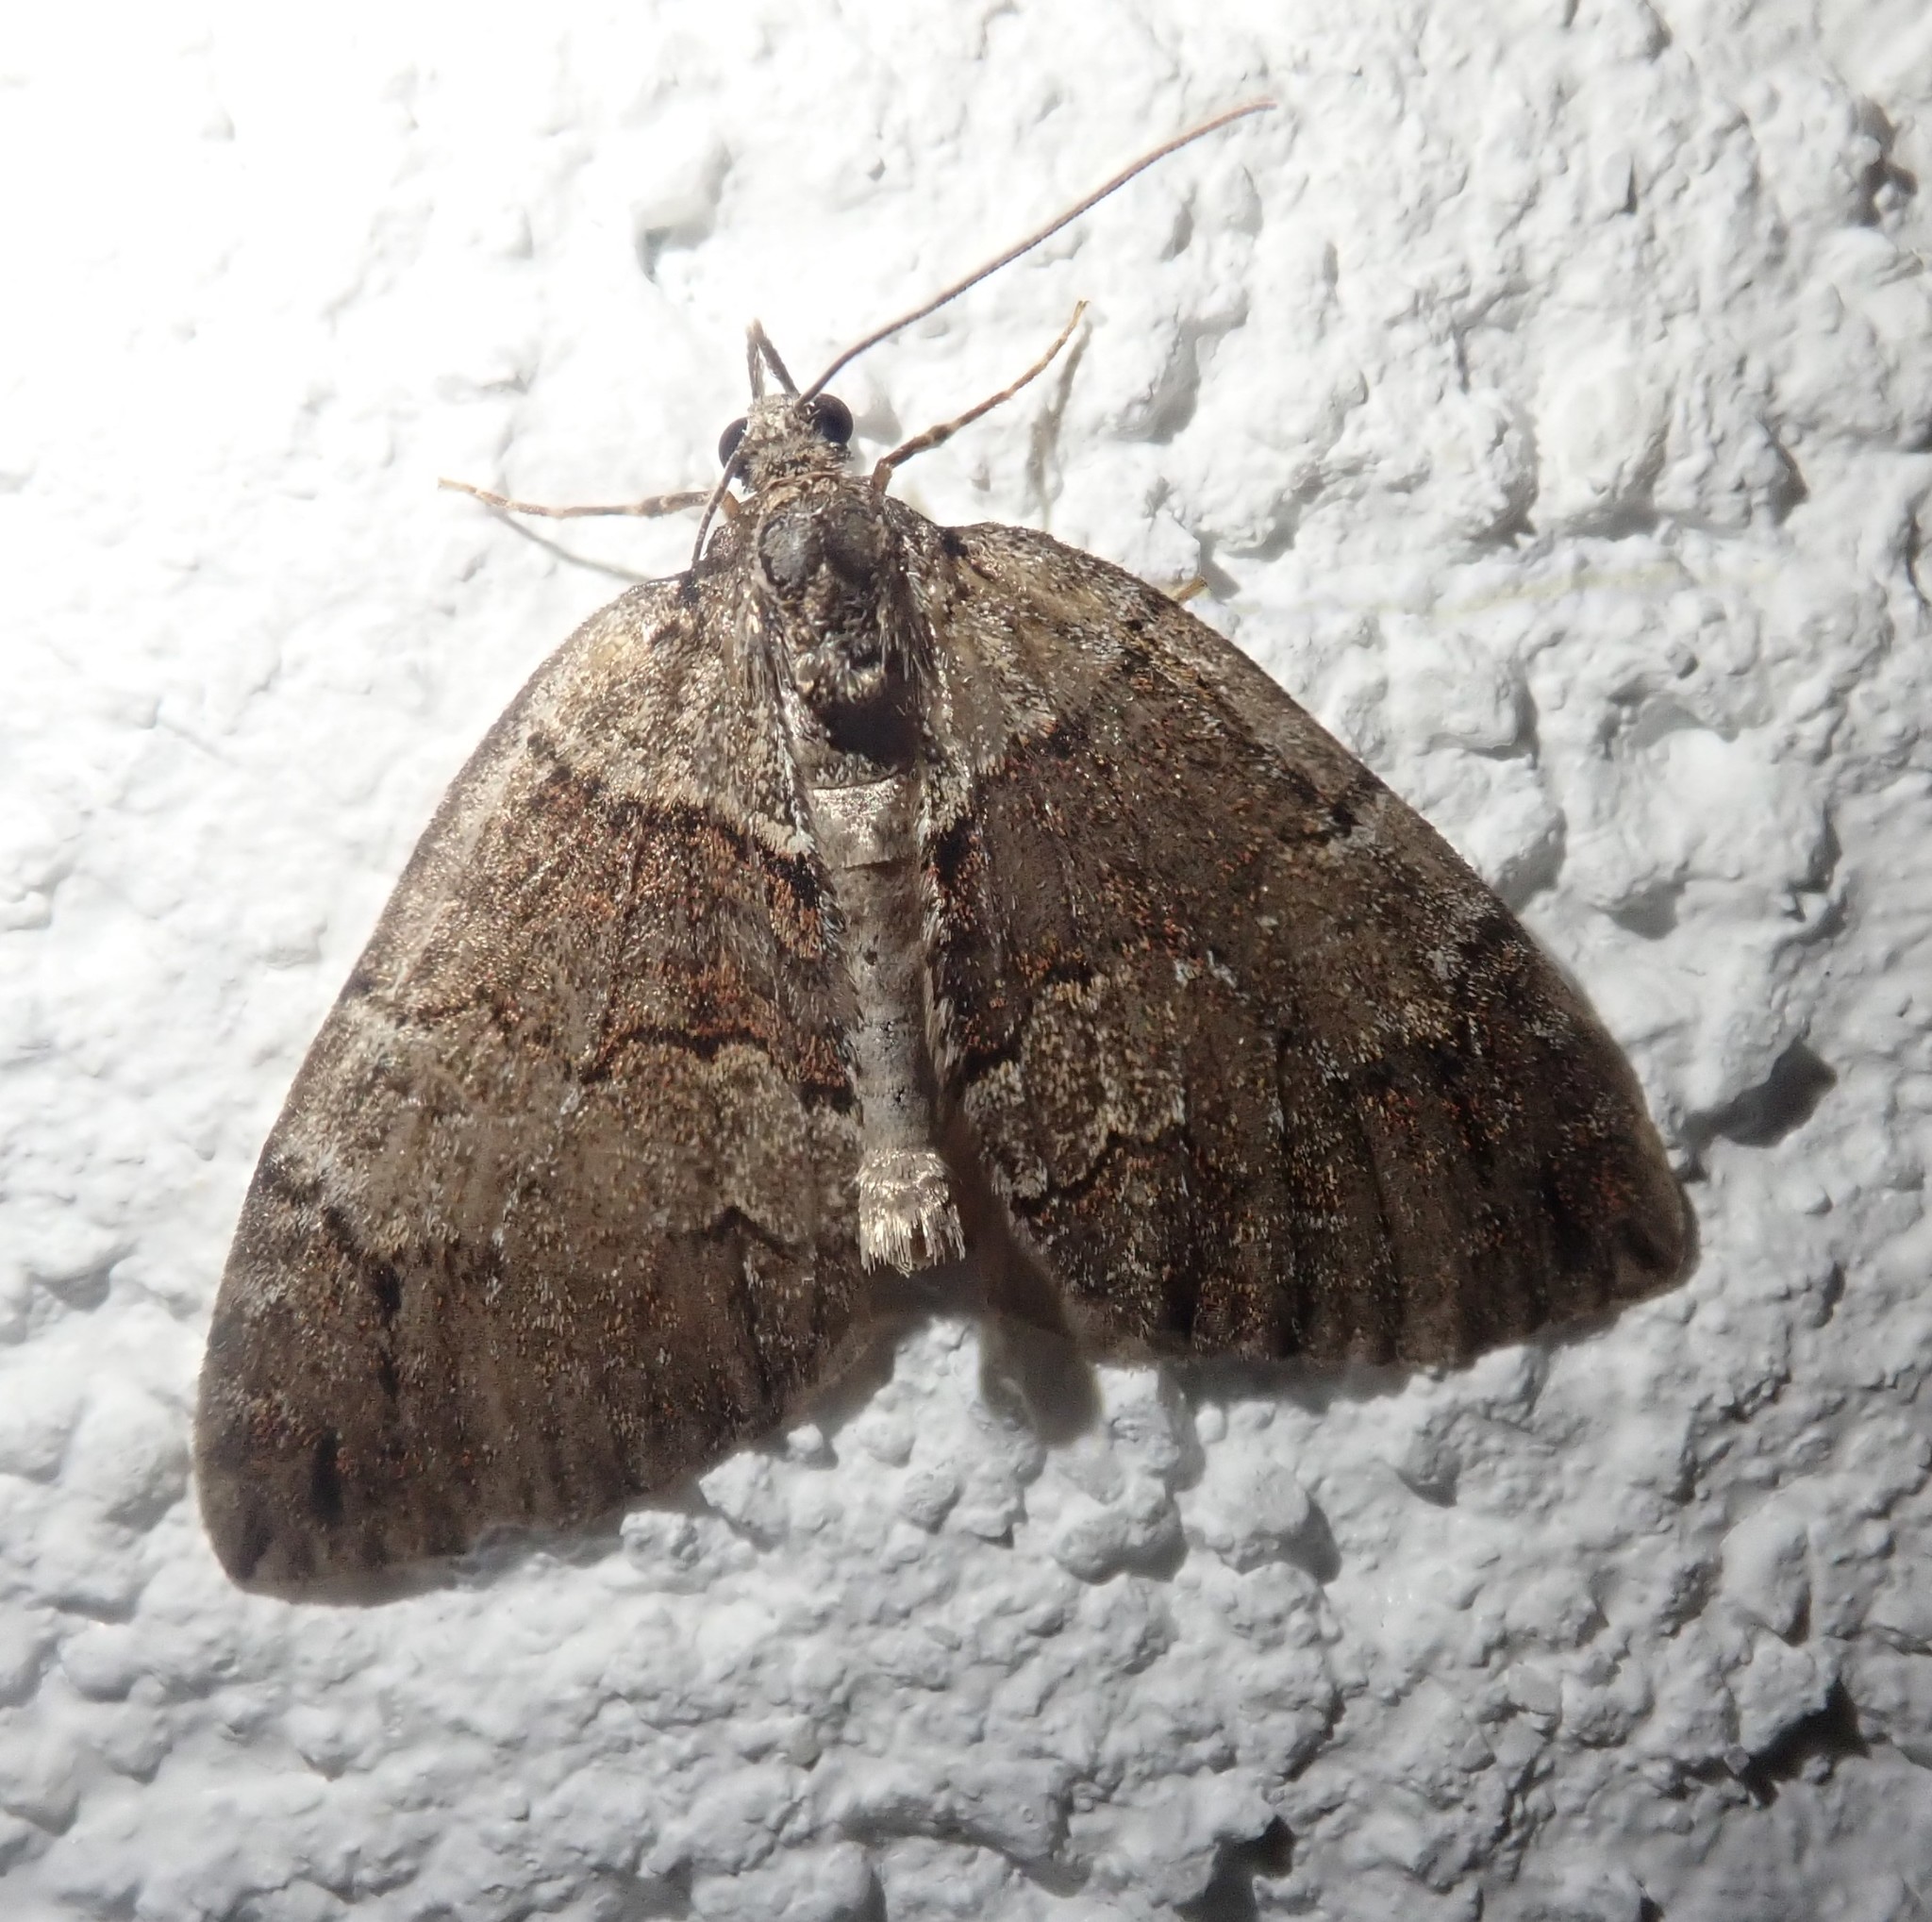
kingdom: Animalia
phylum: Arthropoda
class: Insecta
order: Lepidoptera
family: Geometridae
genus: Hydriomena
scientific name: Hydriomena ruberata
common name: Ruddy highflyer
